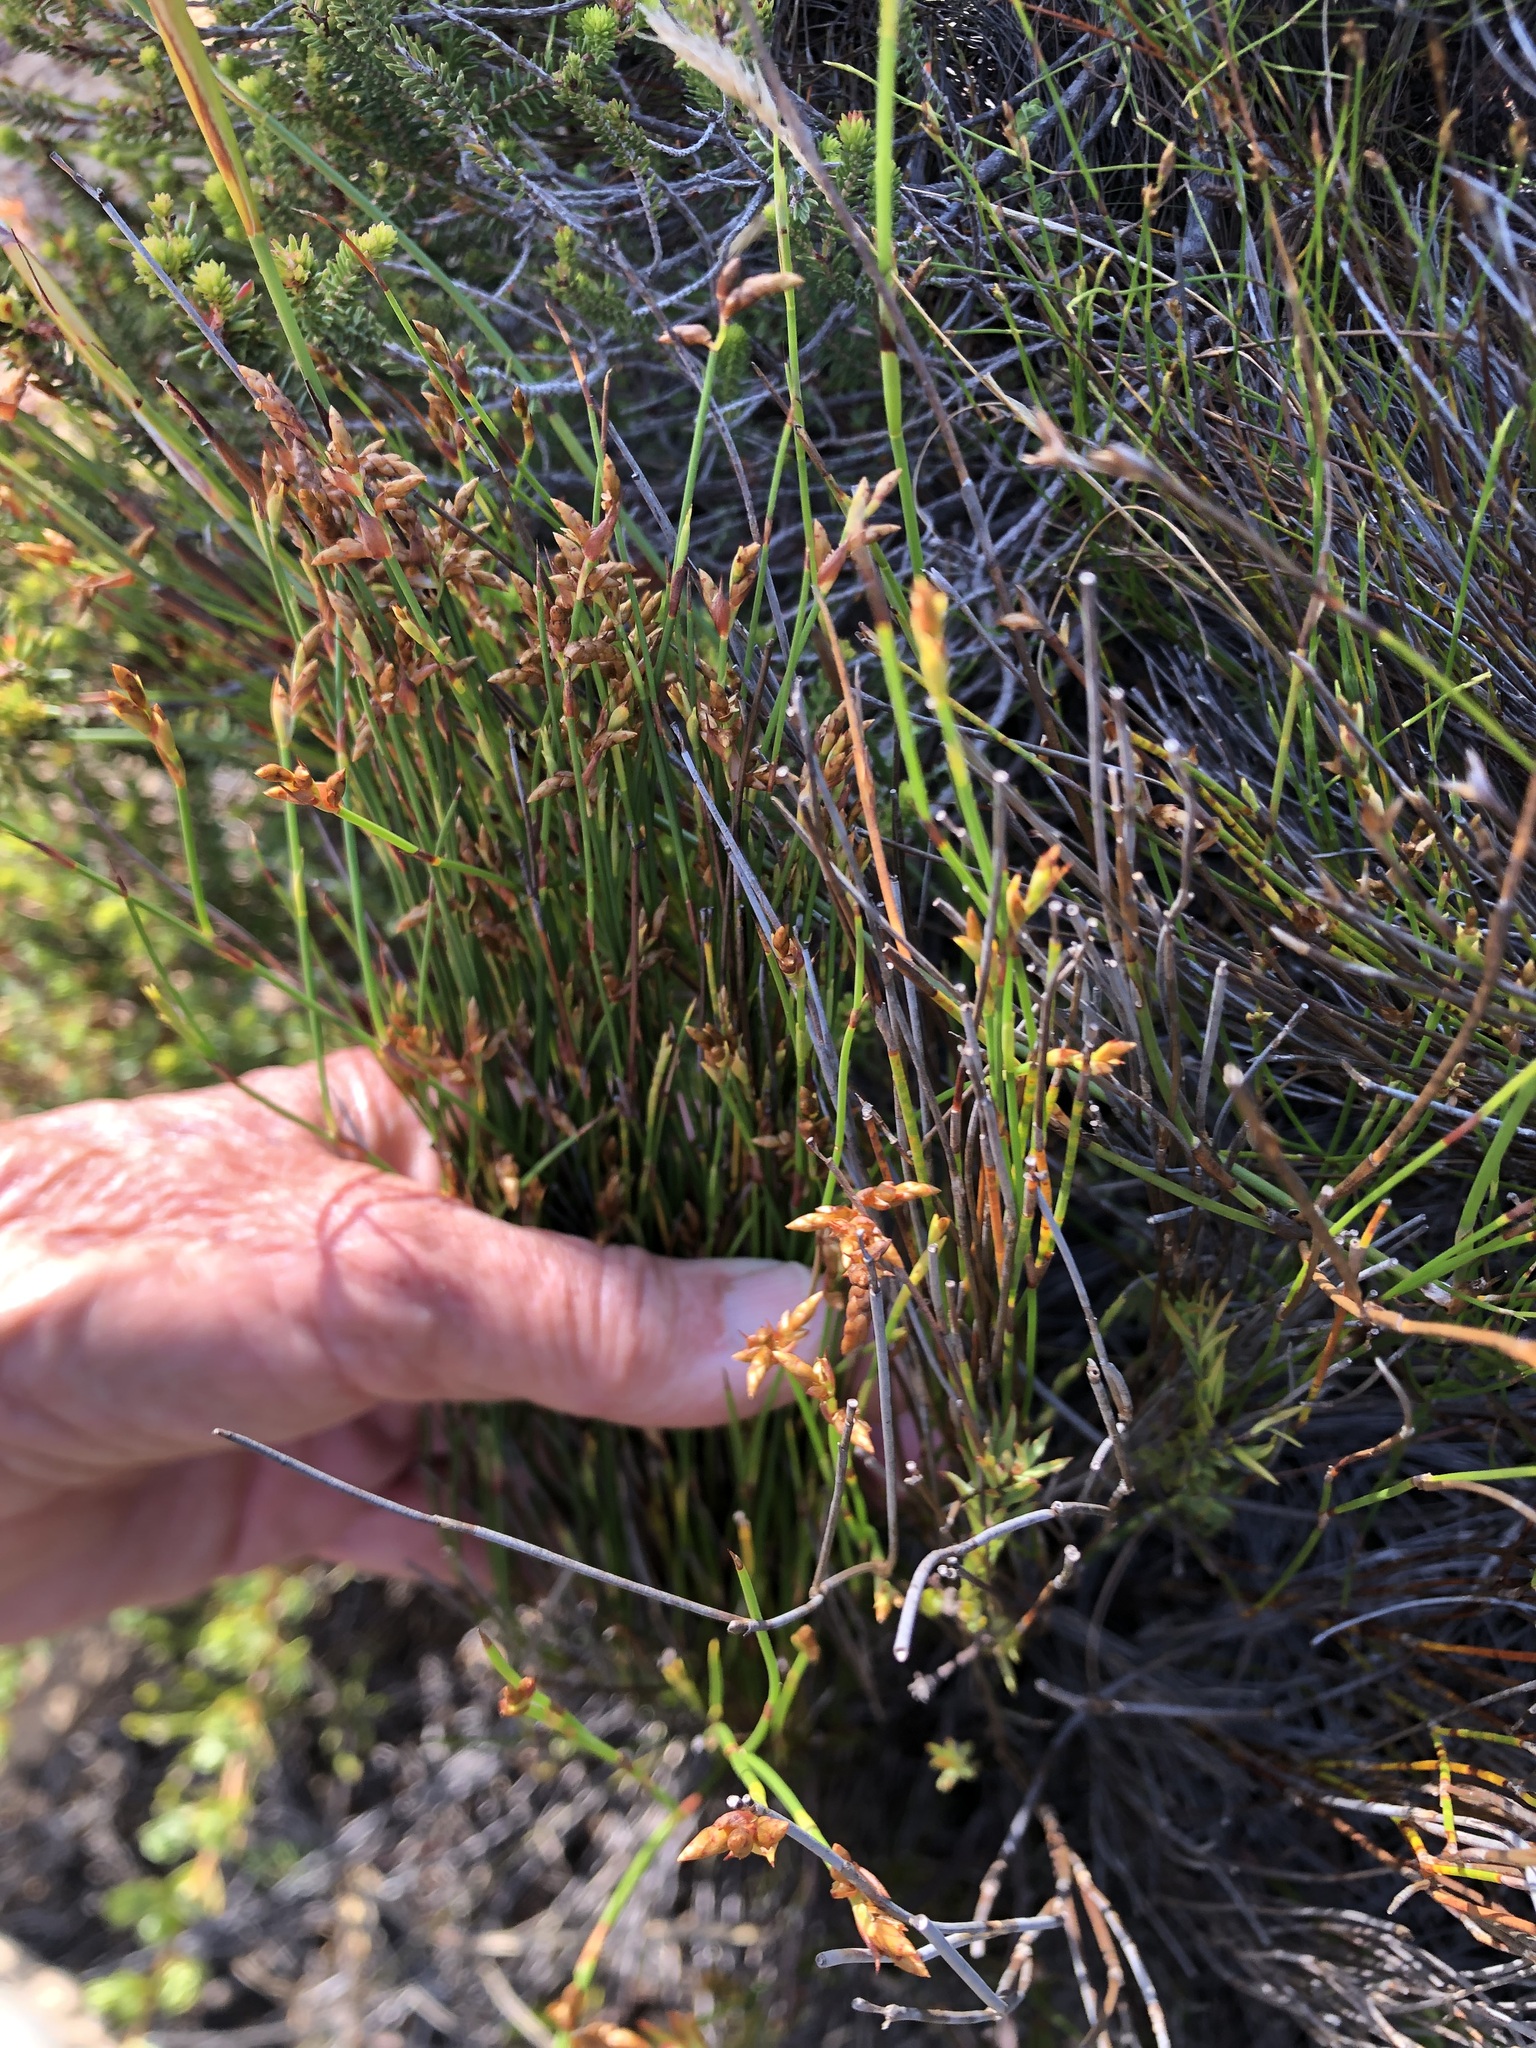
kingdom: Plantae
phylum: Tracheophyta
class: Liliopsida
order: Poales
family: Restionaceae
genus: Mastersiella
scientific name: Mastersiella digitata
